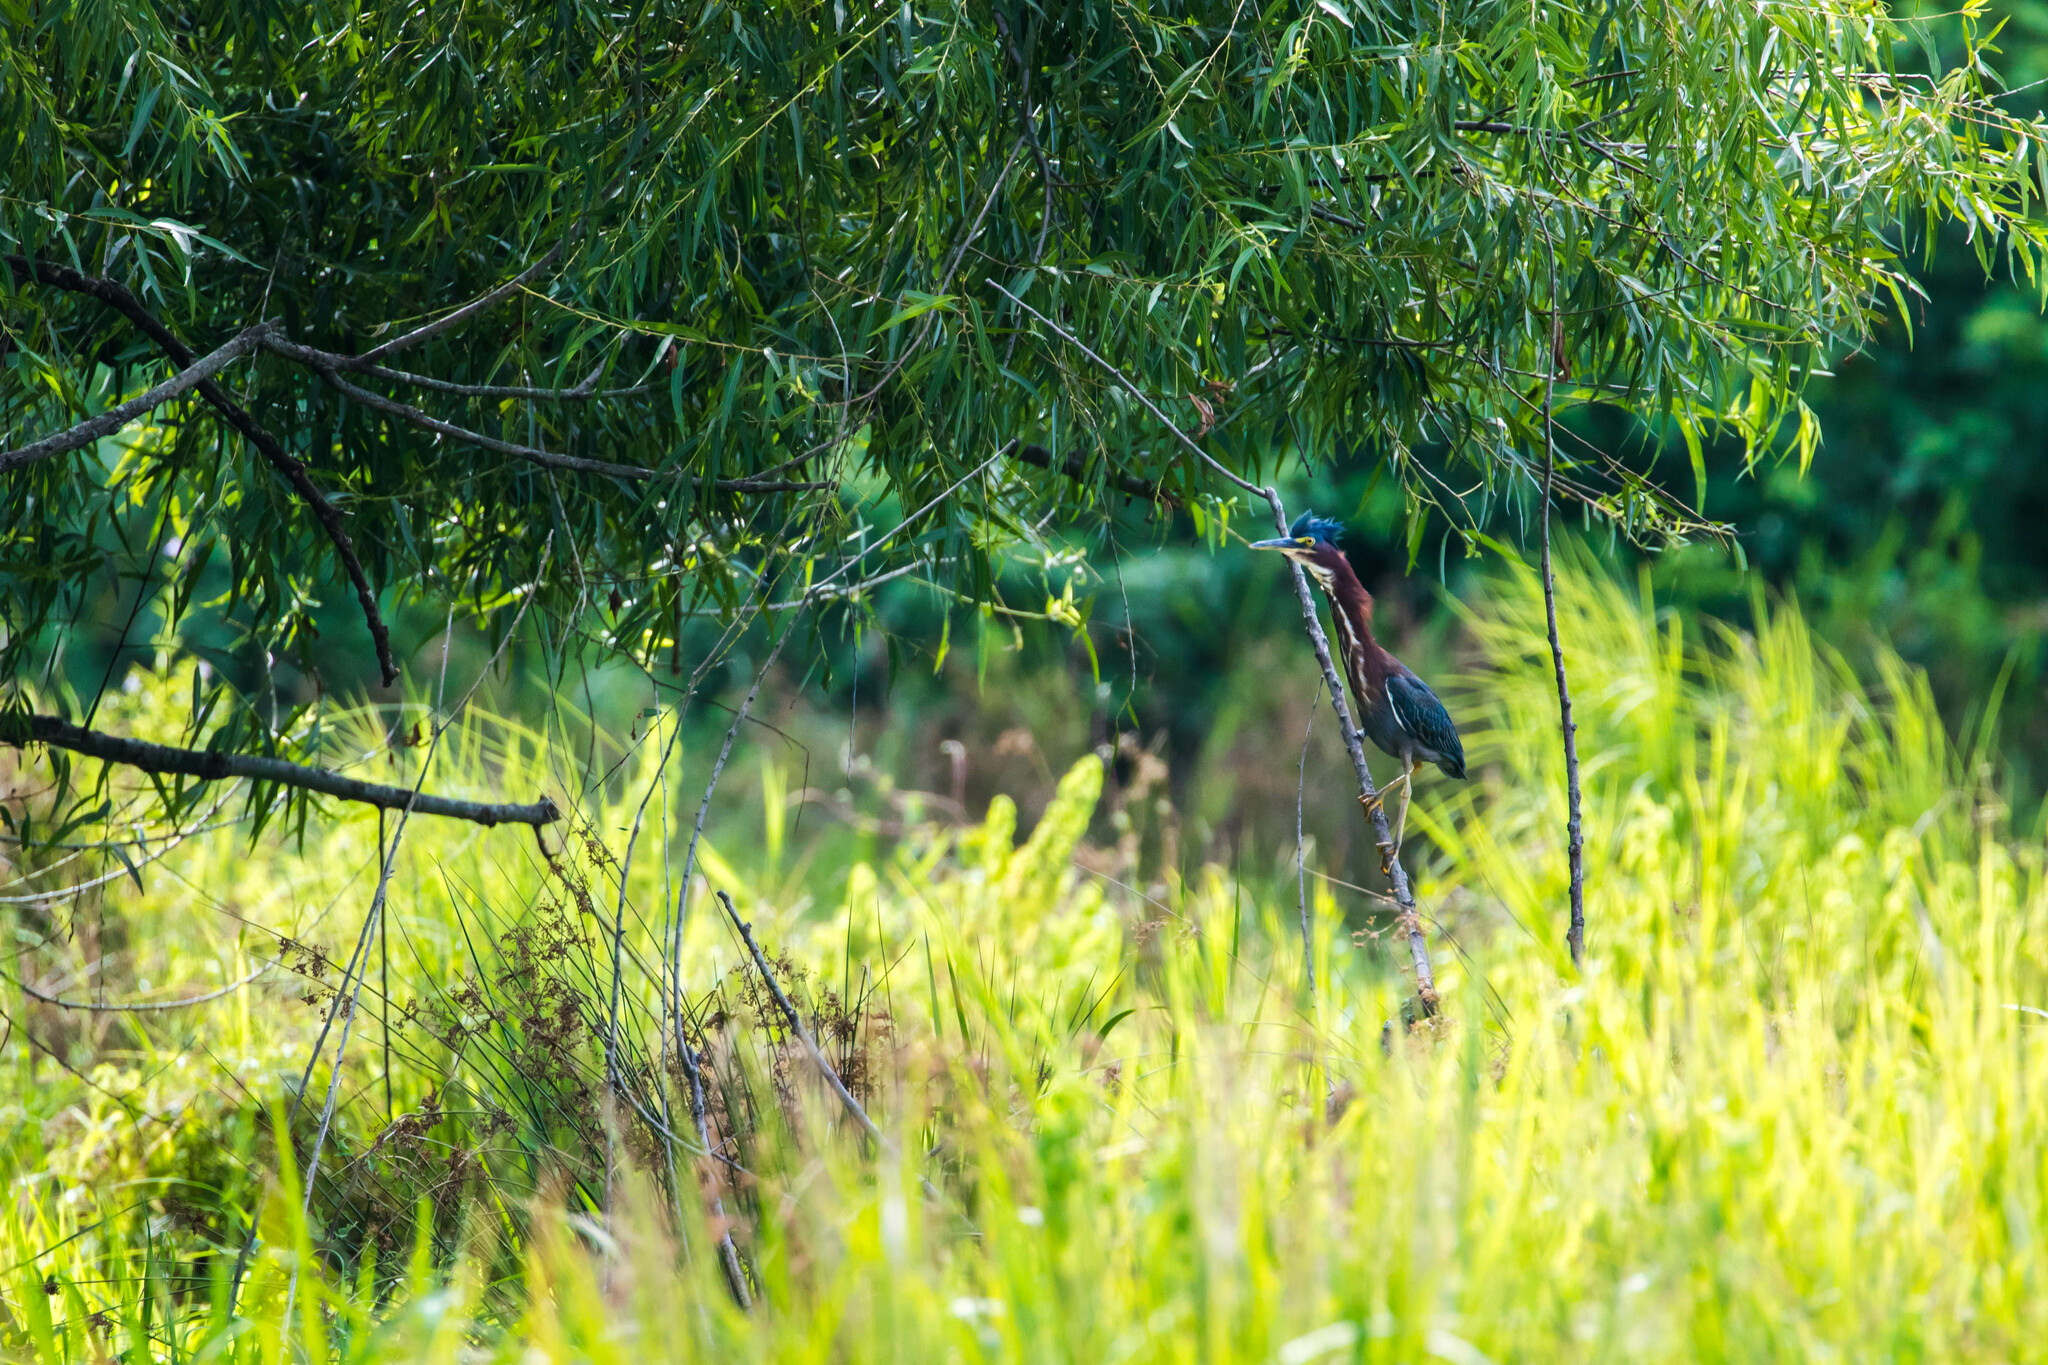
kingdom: Animalia
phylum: Chordata
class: Aves
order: Pelecaniformes
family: Ardeidae
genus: Butorides
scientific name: Butorides virescens
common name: Green heron
